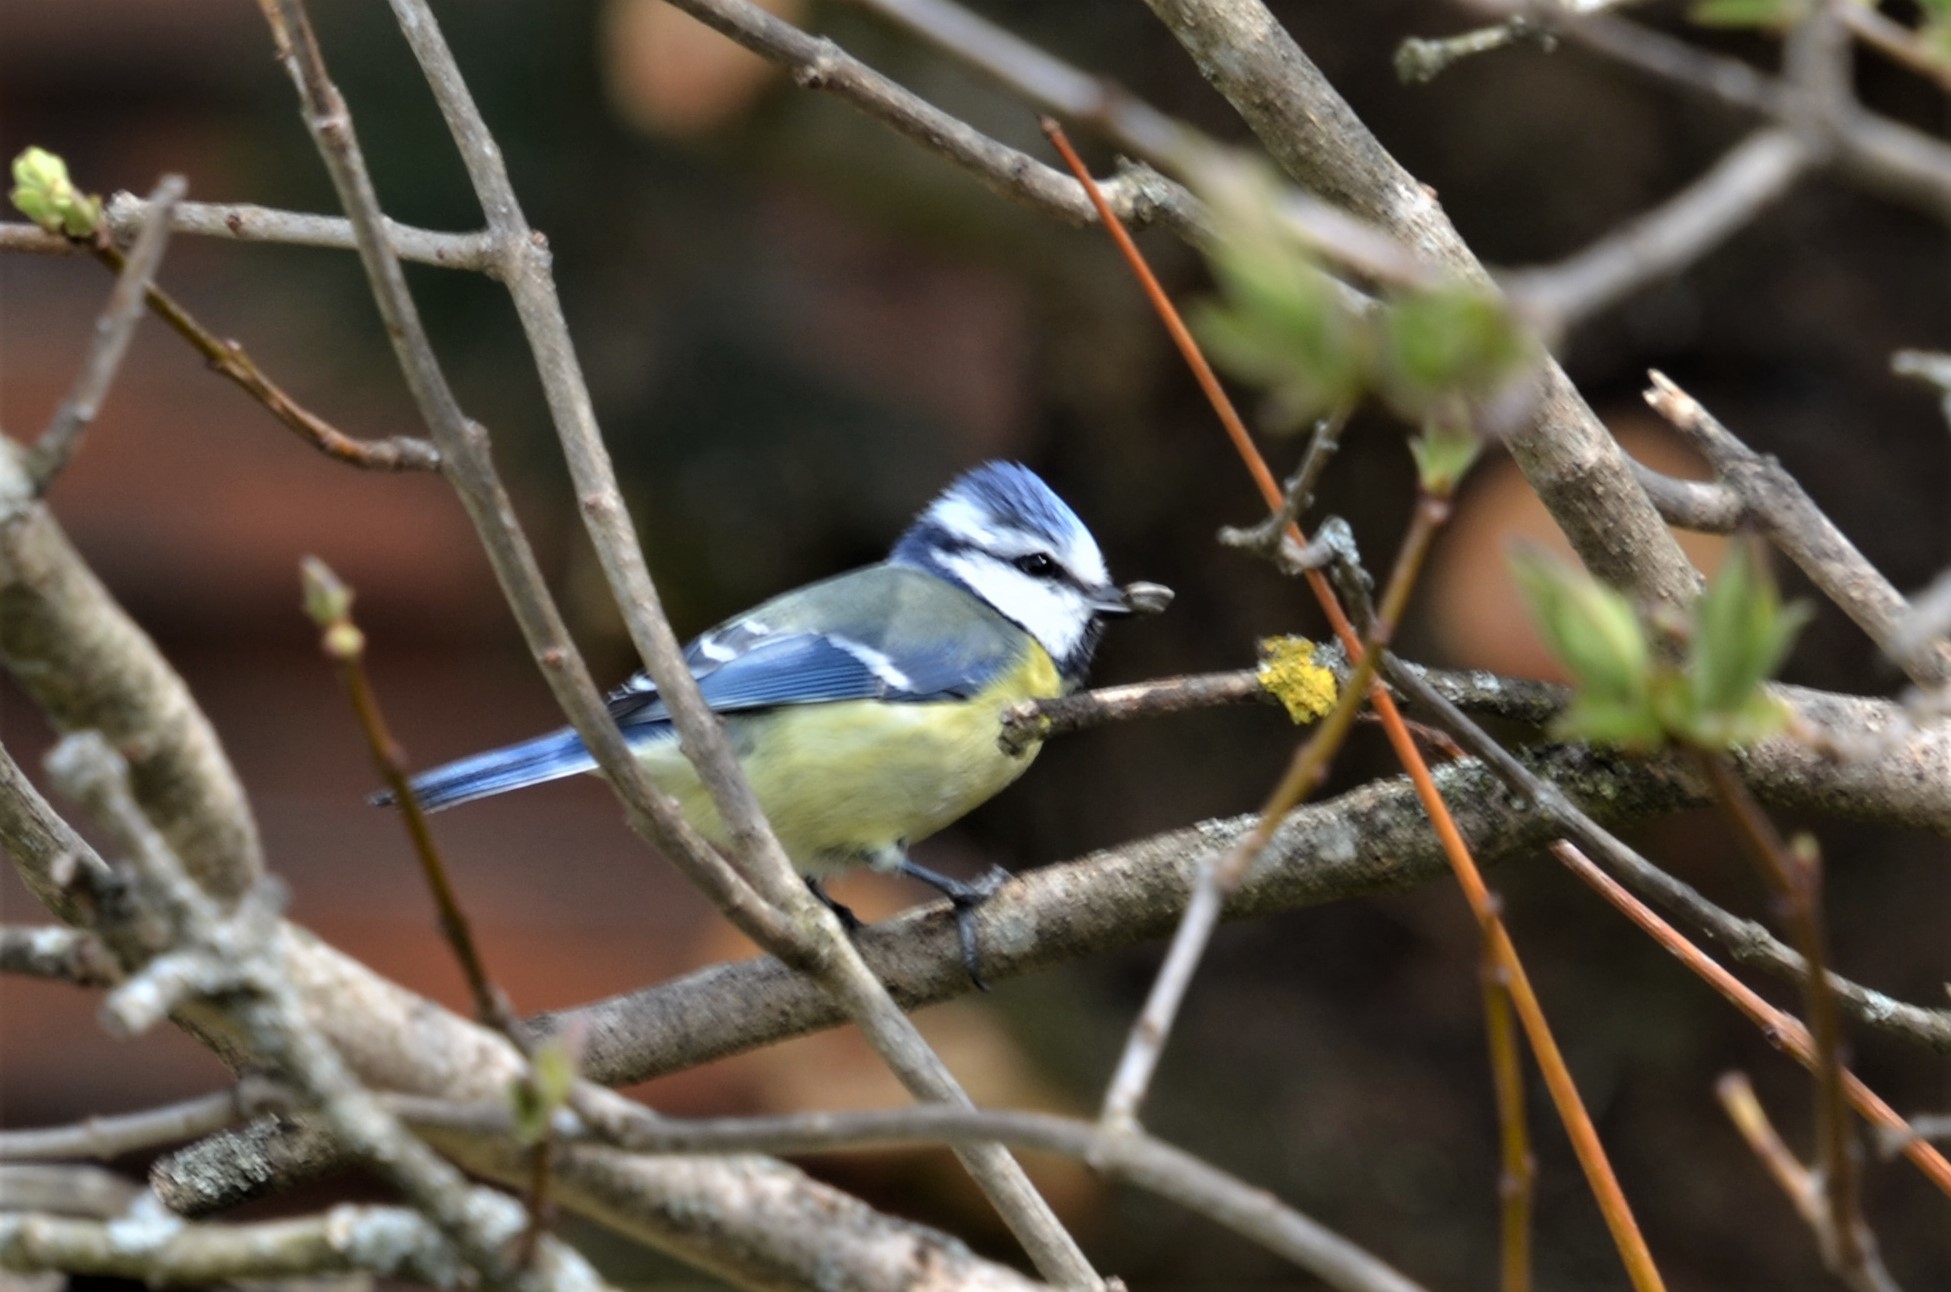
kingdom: Animalia
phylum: Chordata
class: Aves
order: Passeriformes
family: Paridae
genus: Cyanistes
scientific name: Cyanistes caeruleus
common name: Eurasian blue tit
